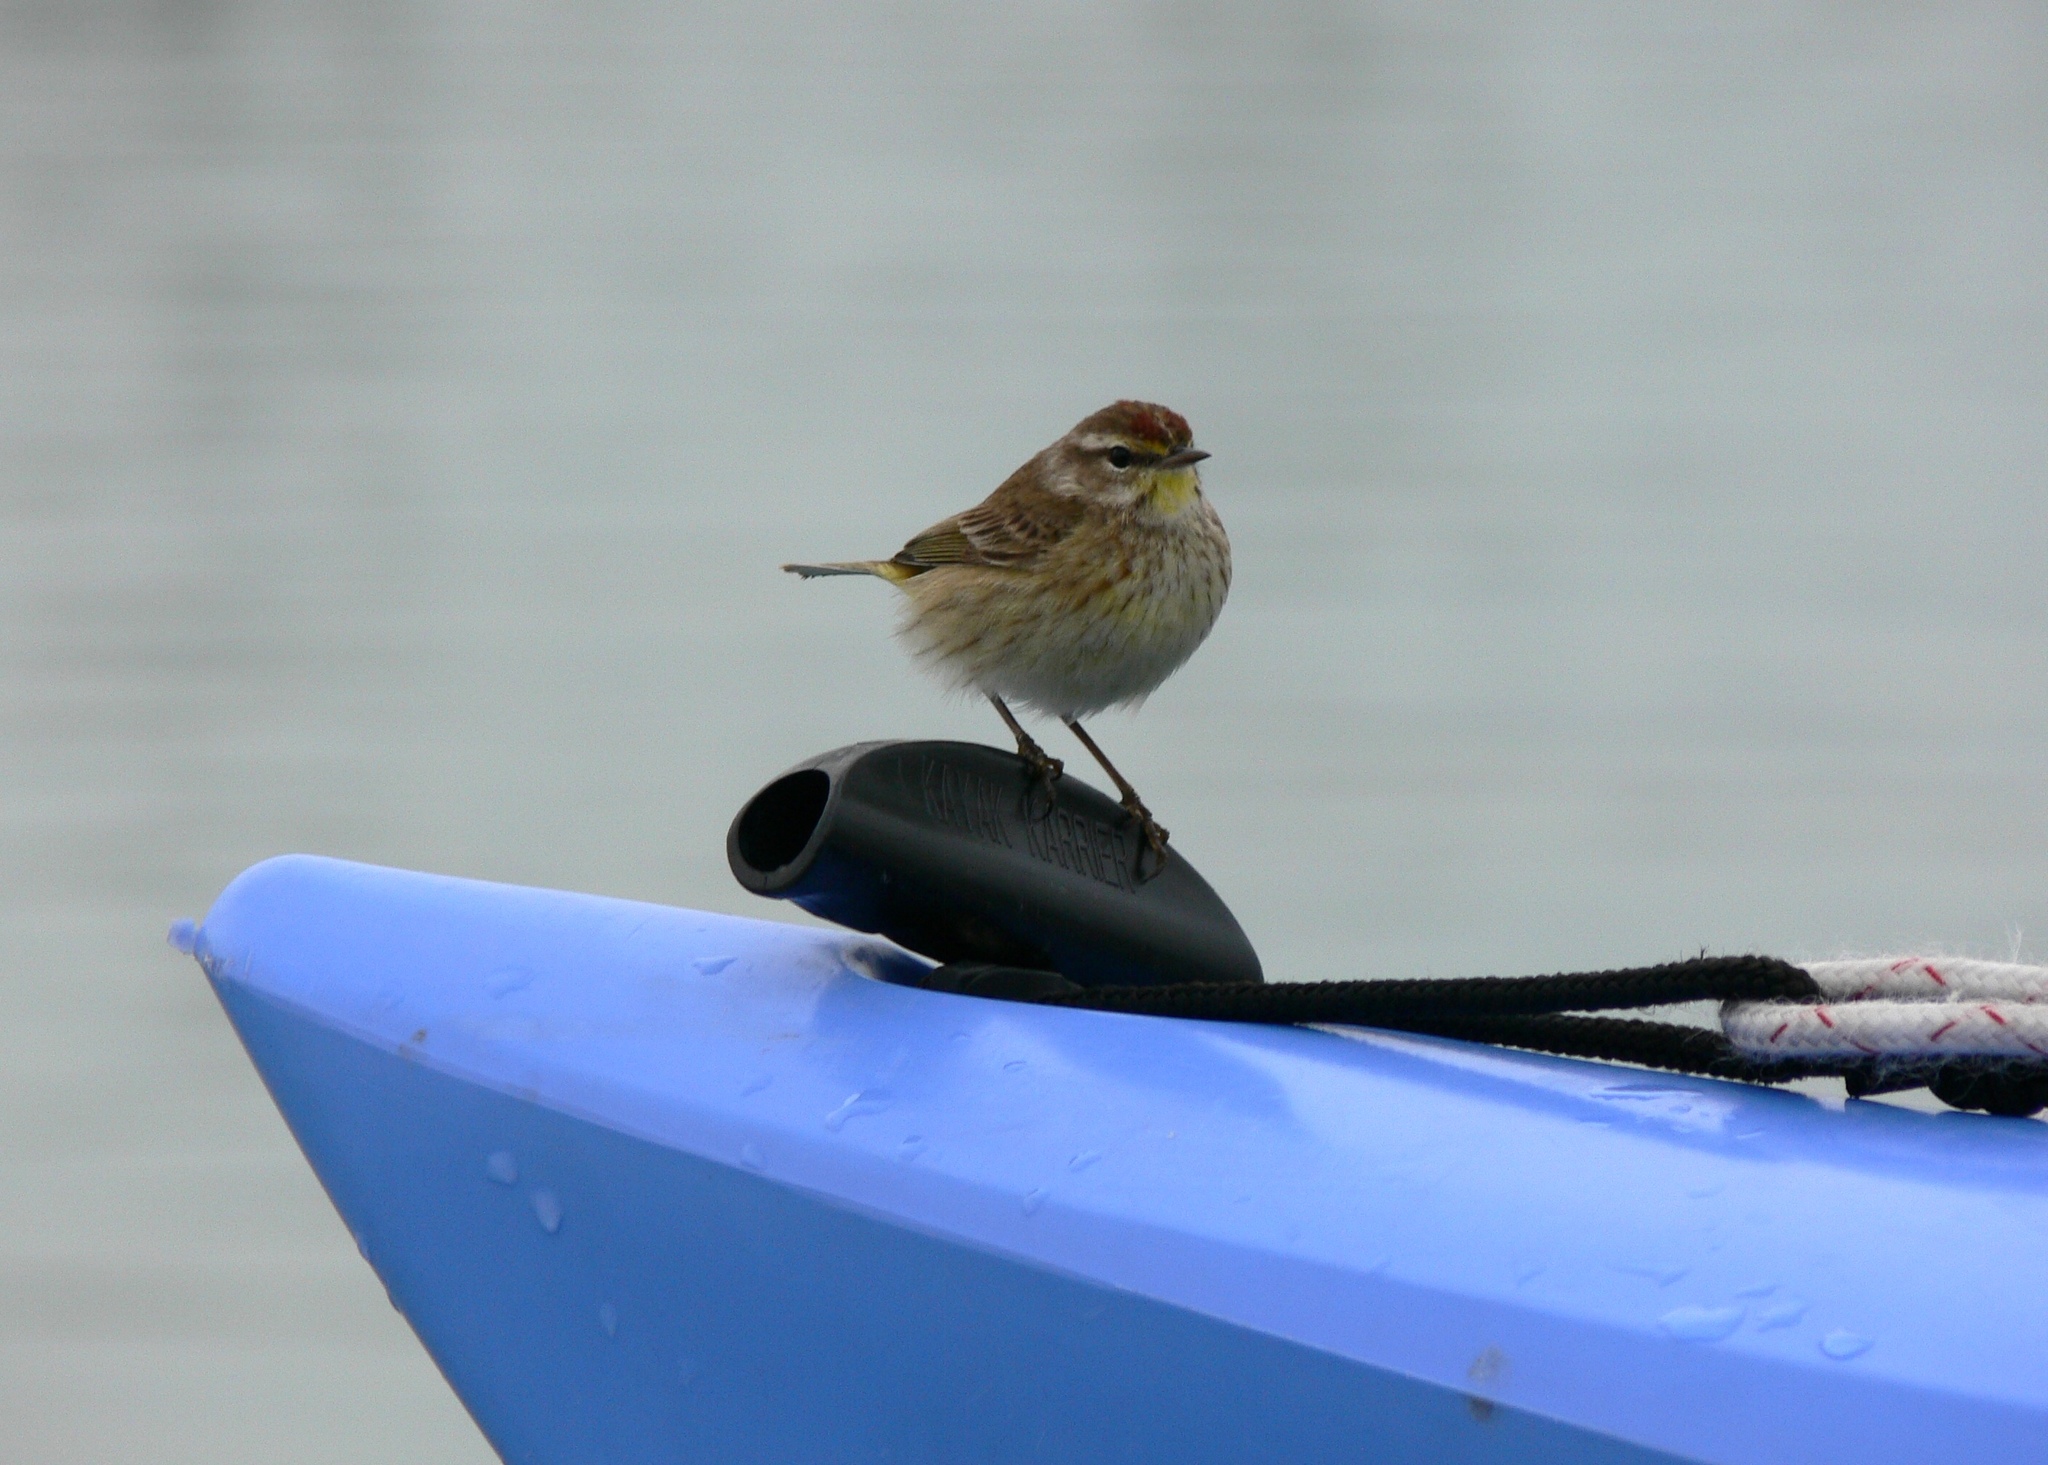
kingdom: Animalia
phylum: Chordata
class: Aves
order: Passeriformes
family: Parulidae
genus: Setophaga
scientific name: Setophaga palmarum
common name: Palm warbler
